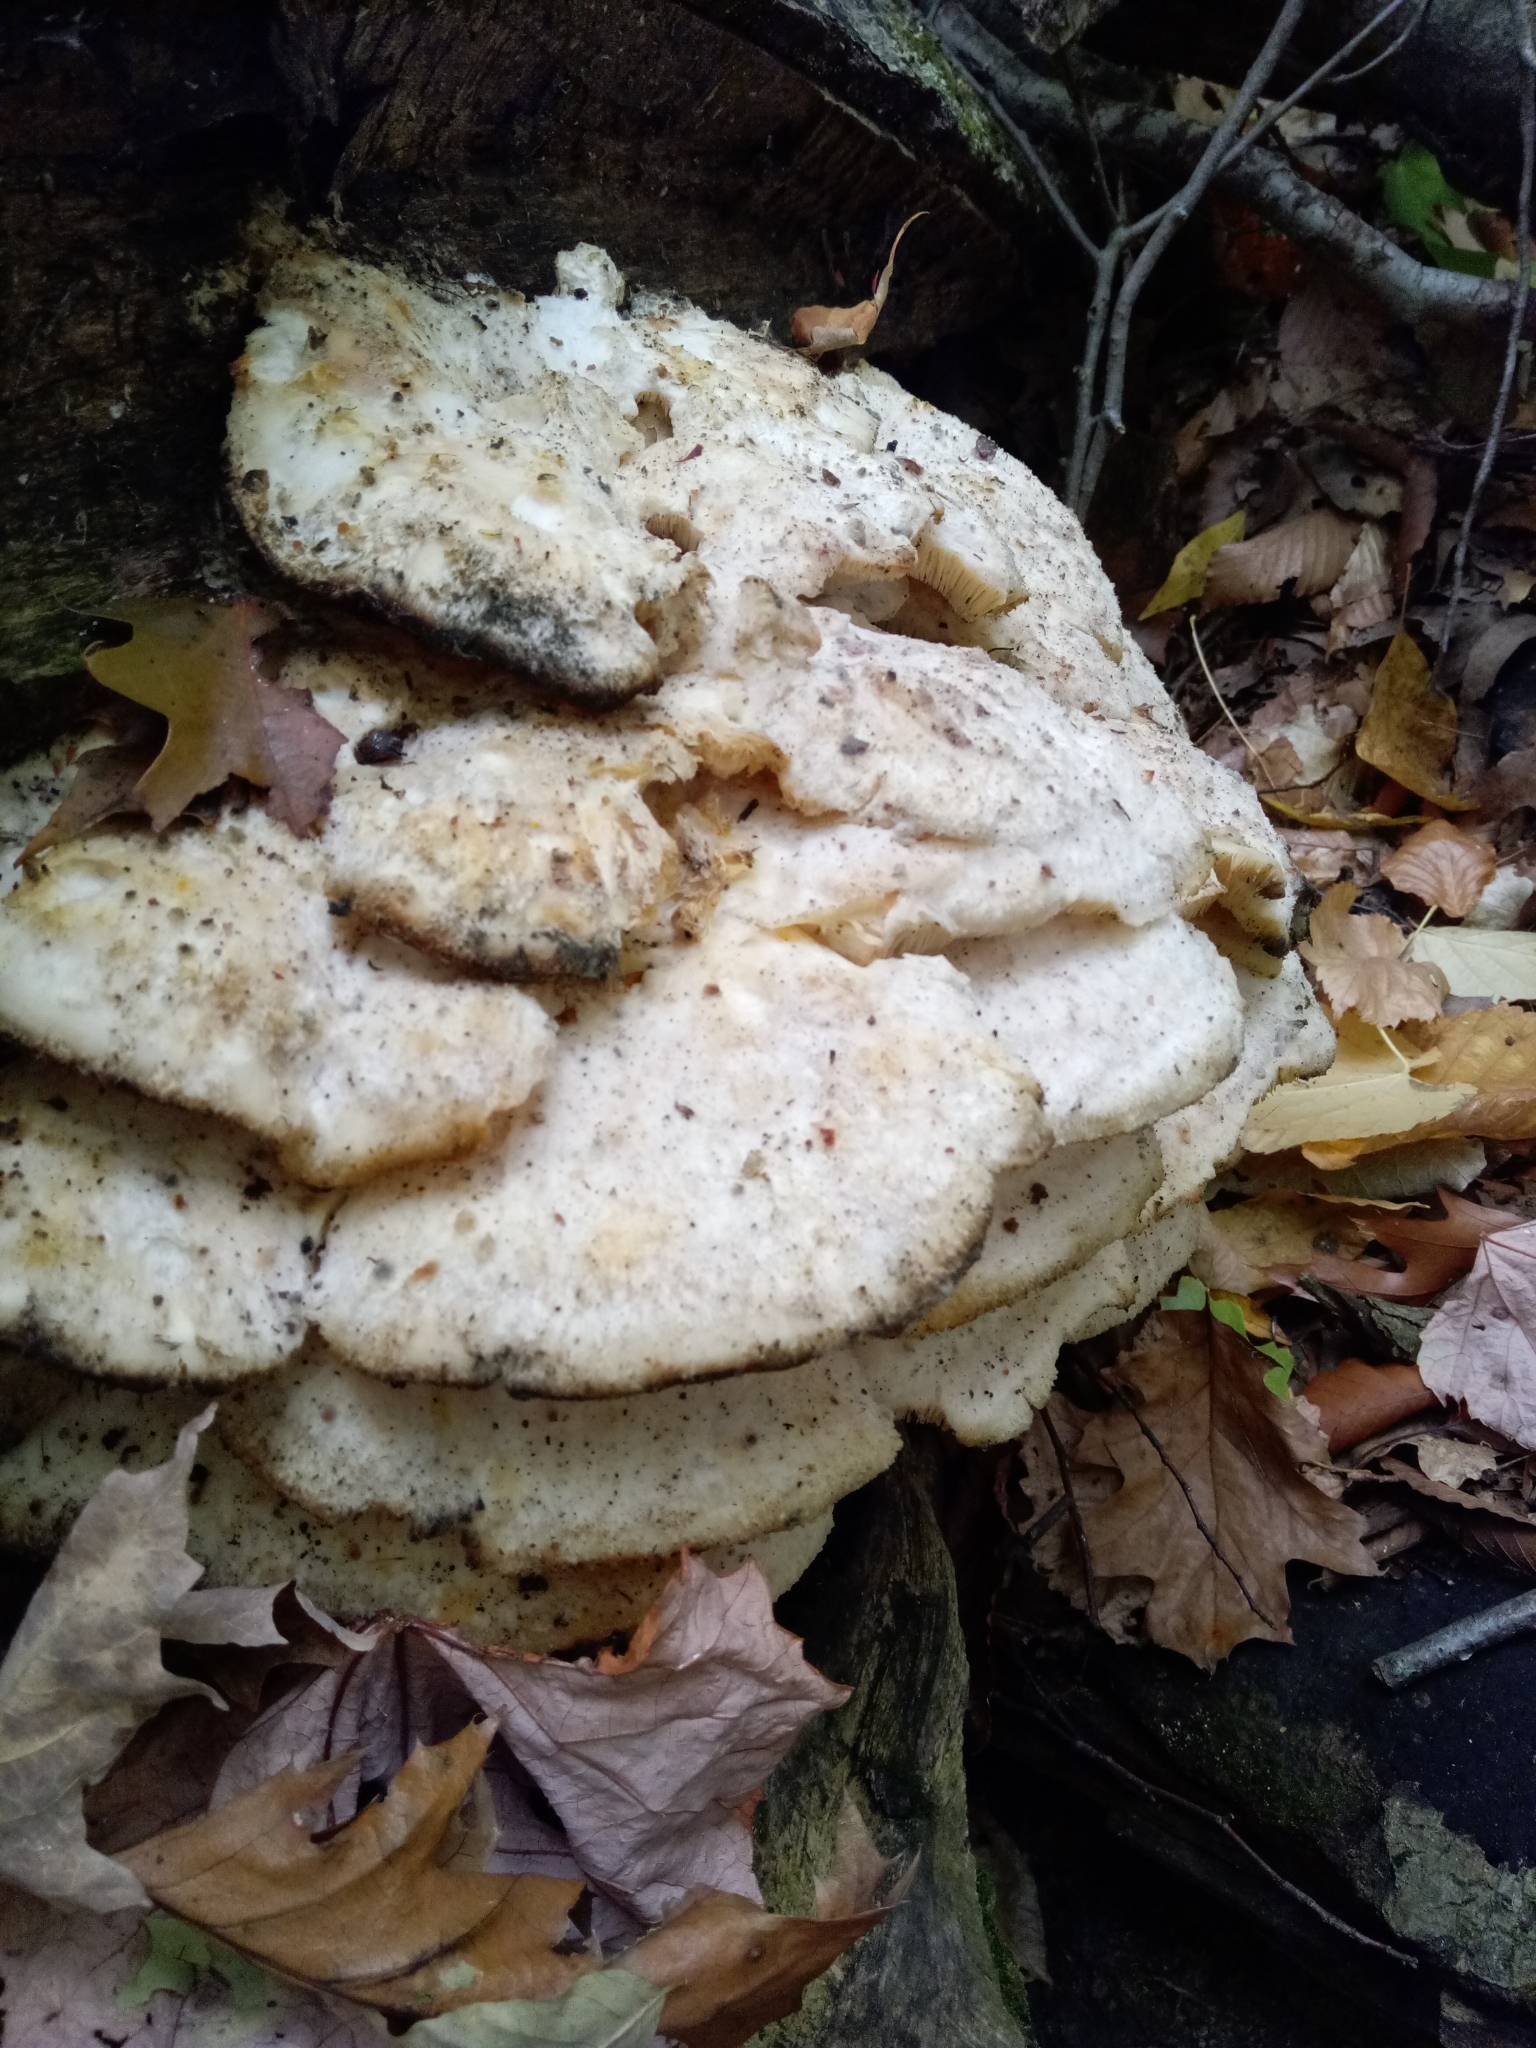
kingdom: Fungi
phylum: Basidiomycota
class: Agaricomycetes
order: Polyporales
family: Meruliaceae
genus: Climacodon
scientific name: Climacodon septentrionalis
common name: Northern tooth
